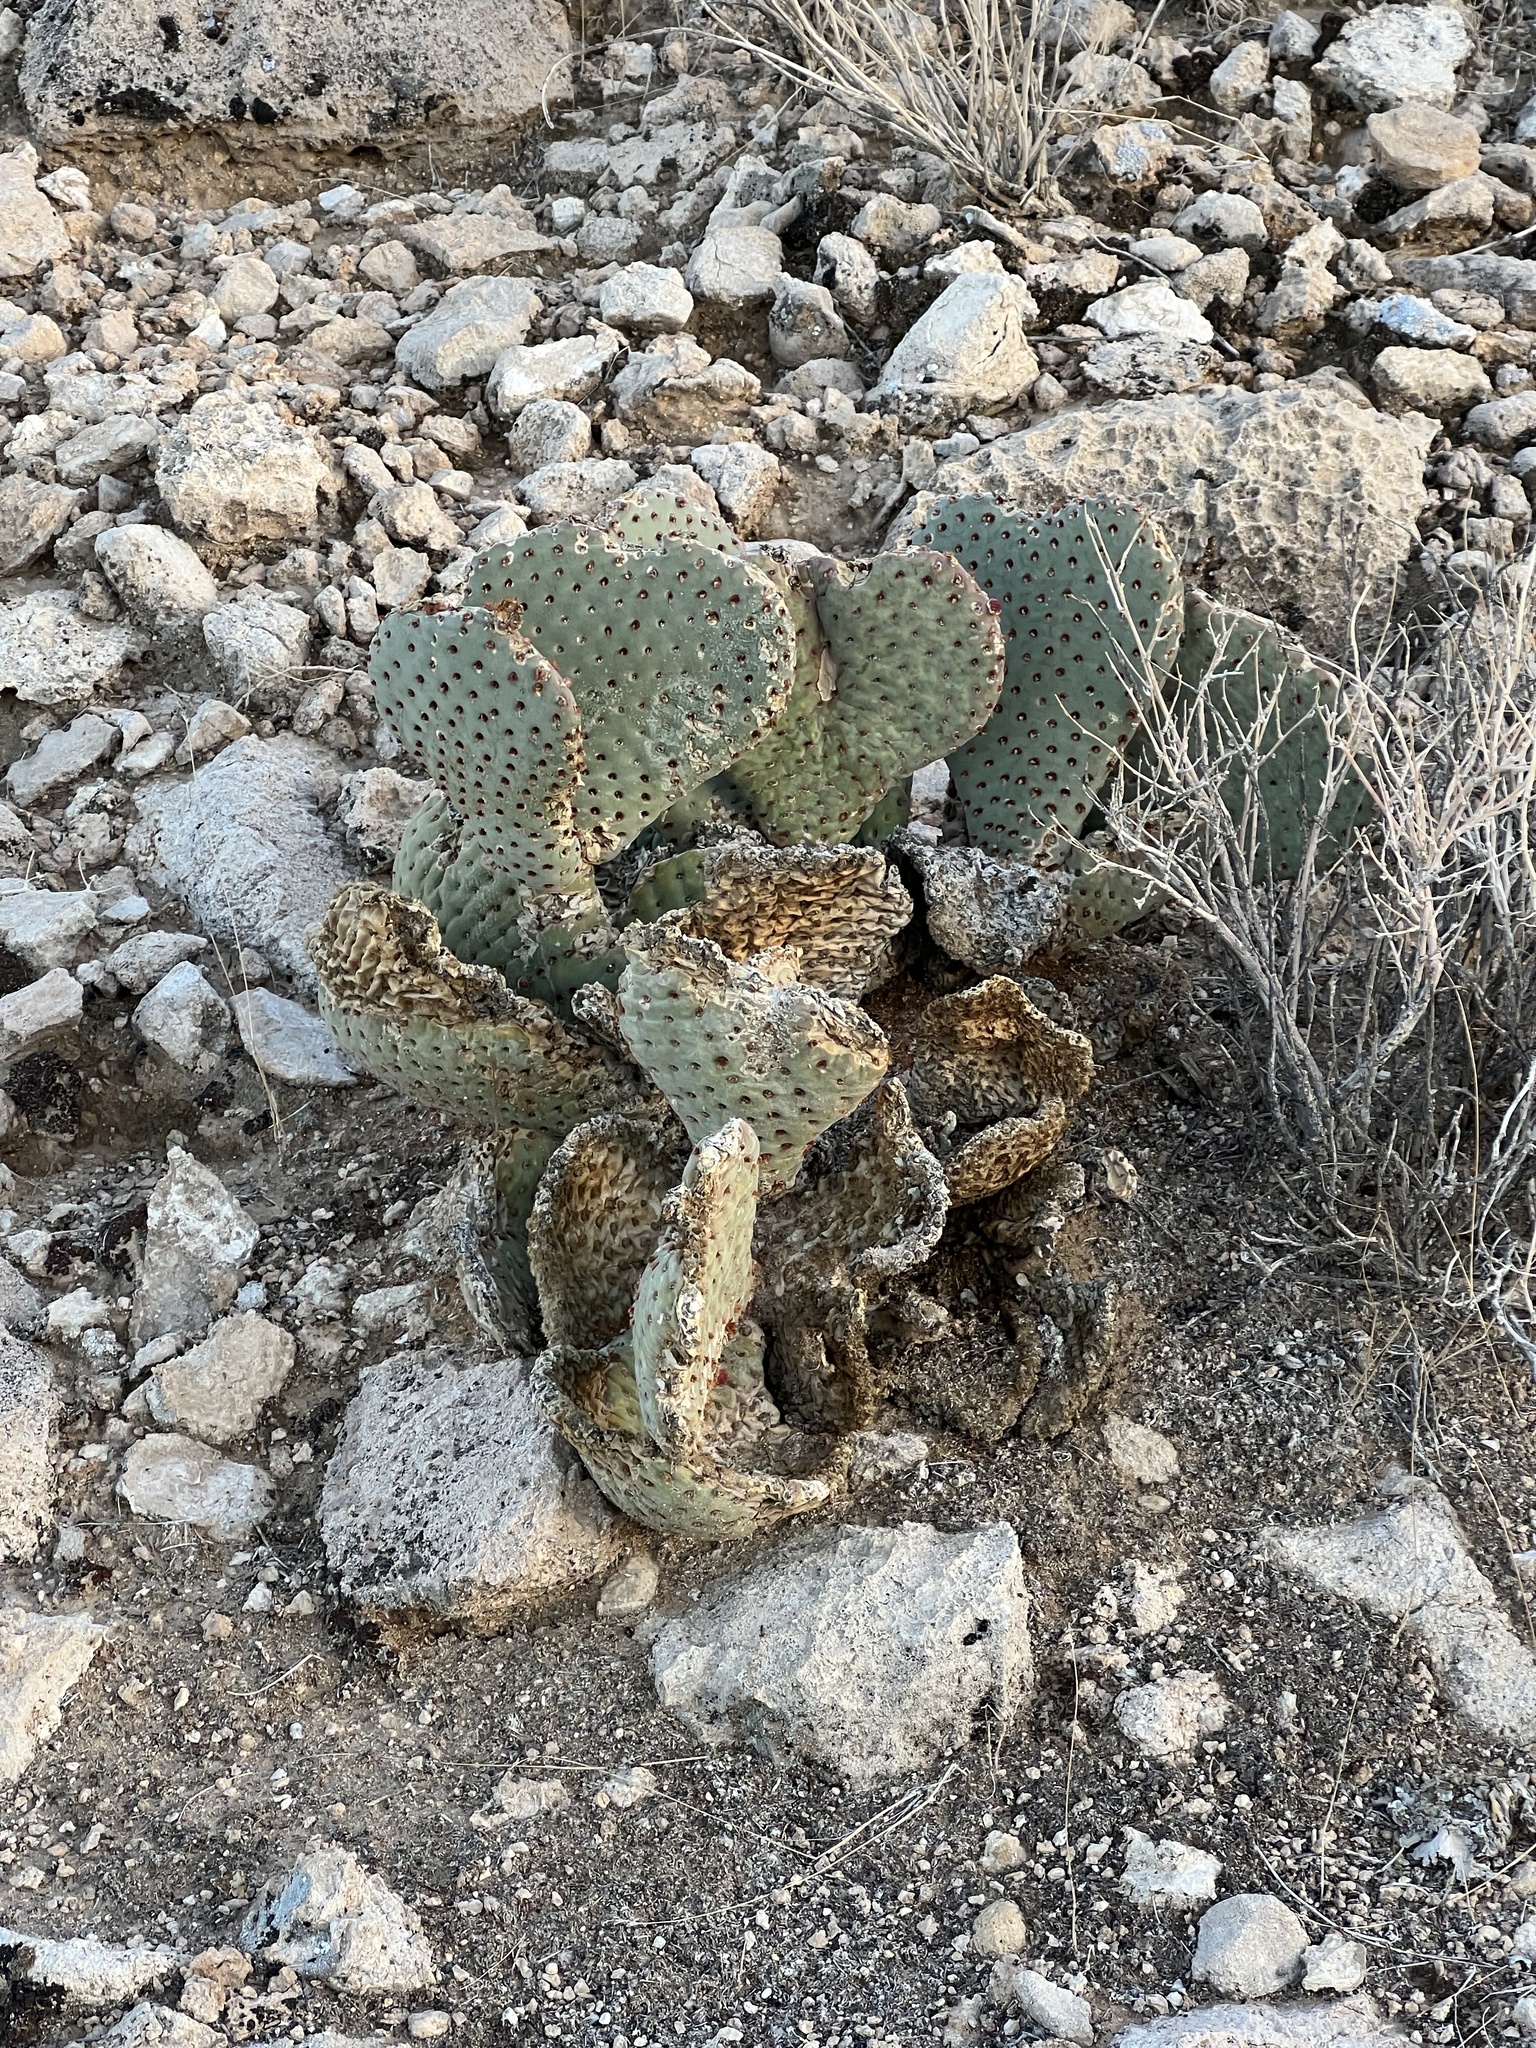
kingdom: Plantae
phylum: Tracheophyta
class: Magnoliopsida
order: Caryophyllales
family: Cactaceae
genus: Opuntia
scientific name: Opuntia basilaris
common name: Beavertail prickly-pear
